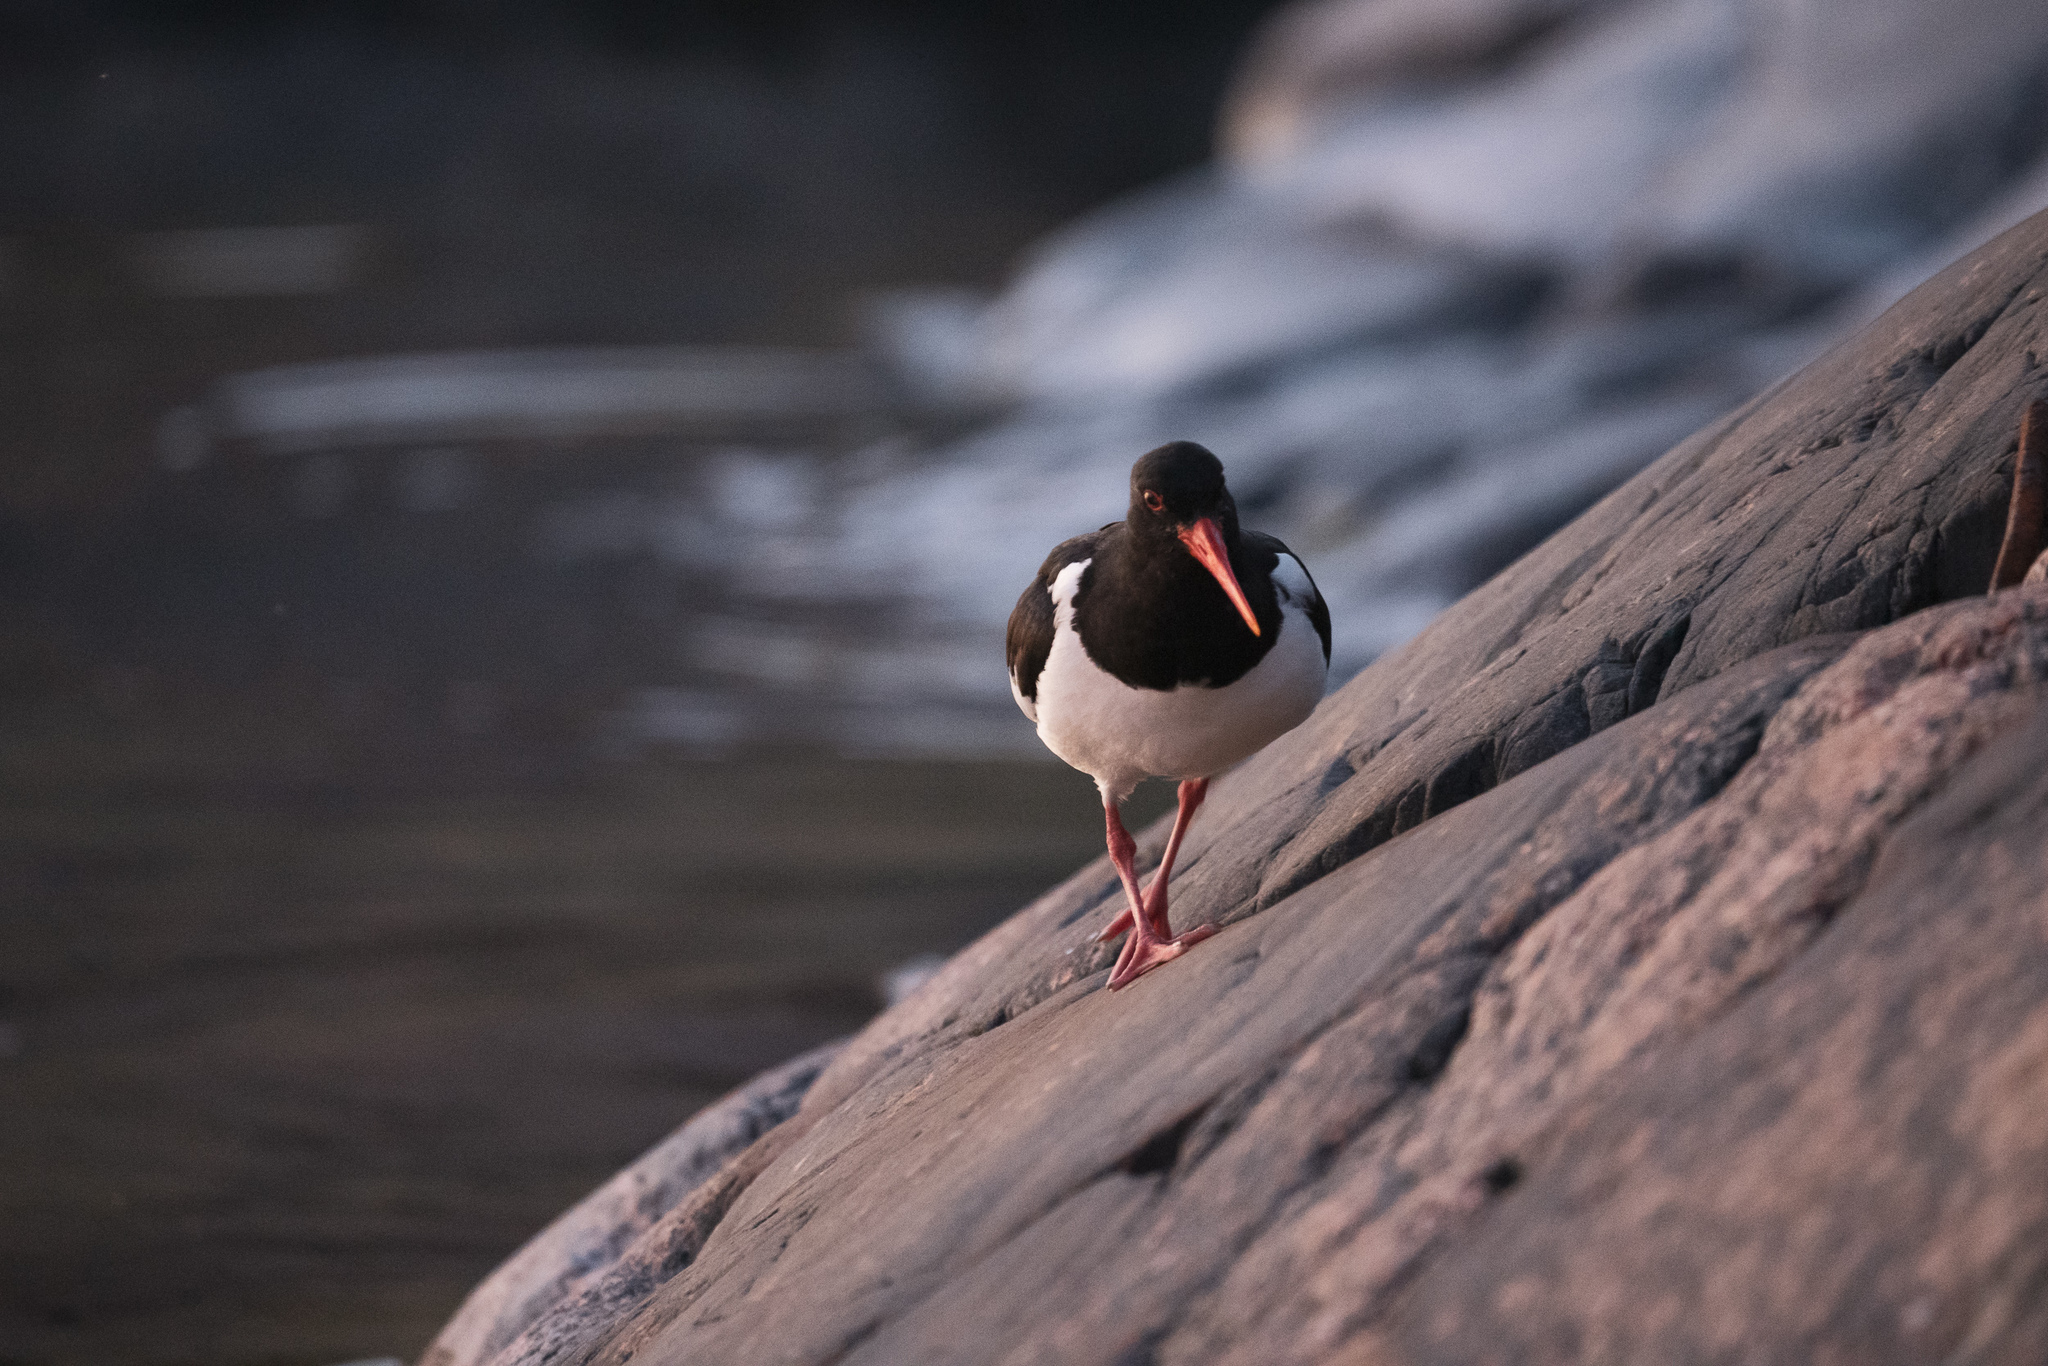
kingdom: Animalia
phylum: Chordata
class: Aves
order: Charadriiformes
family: Haematopodidae
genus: Haematopus
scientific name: Haematopus ostralegus
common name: Eurasian oystercatcher
